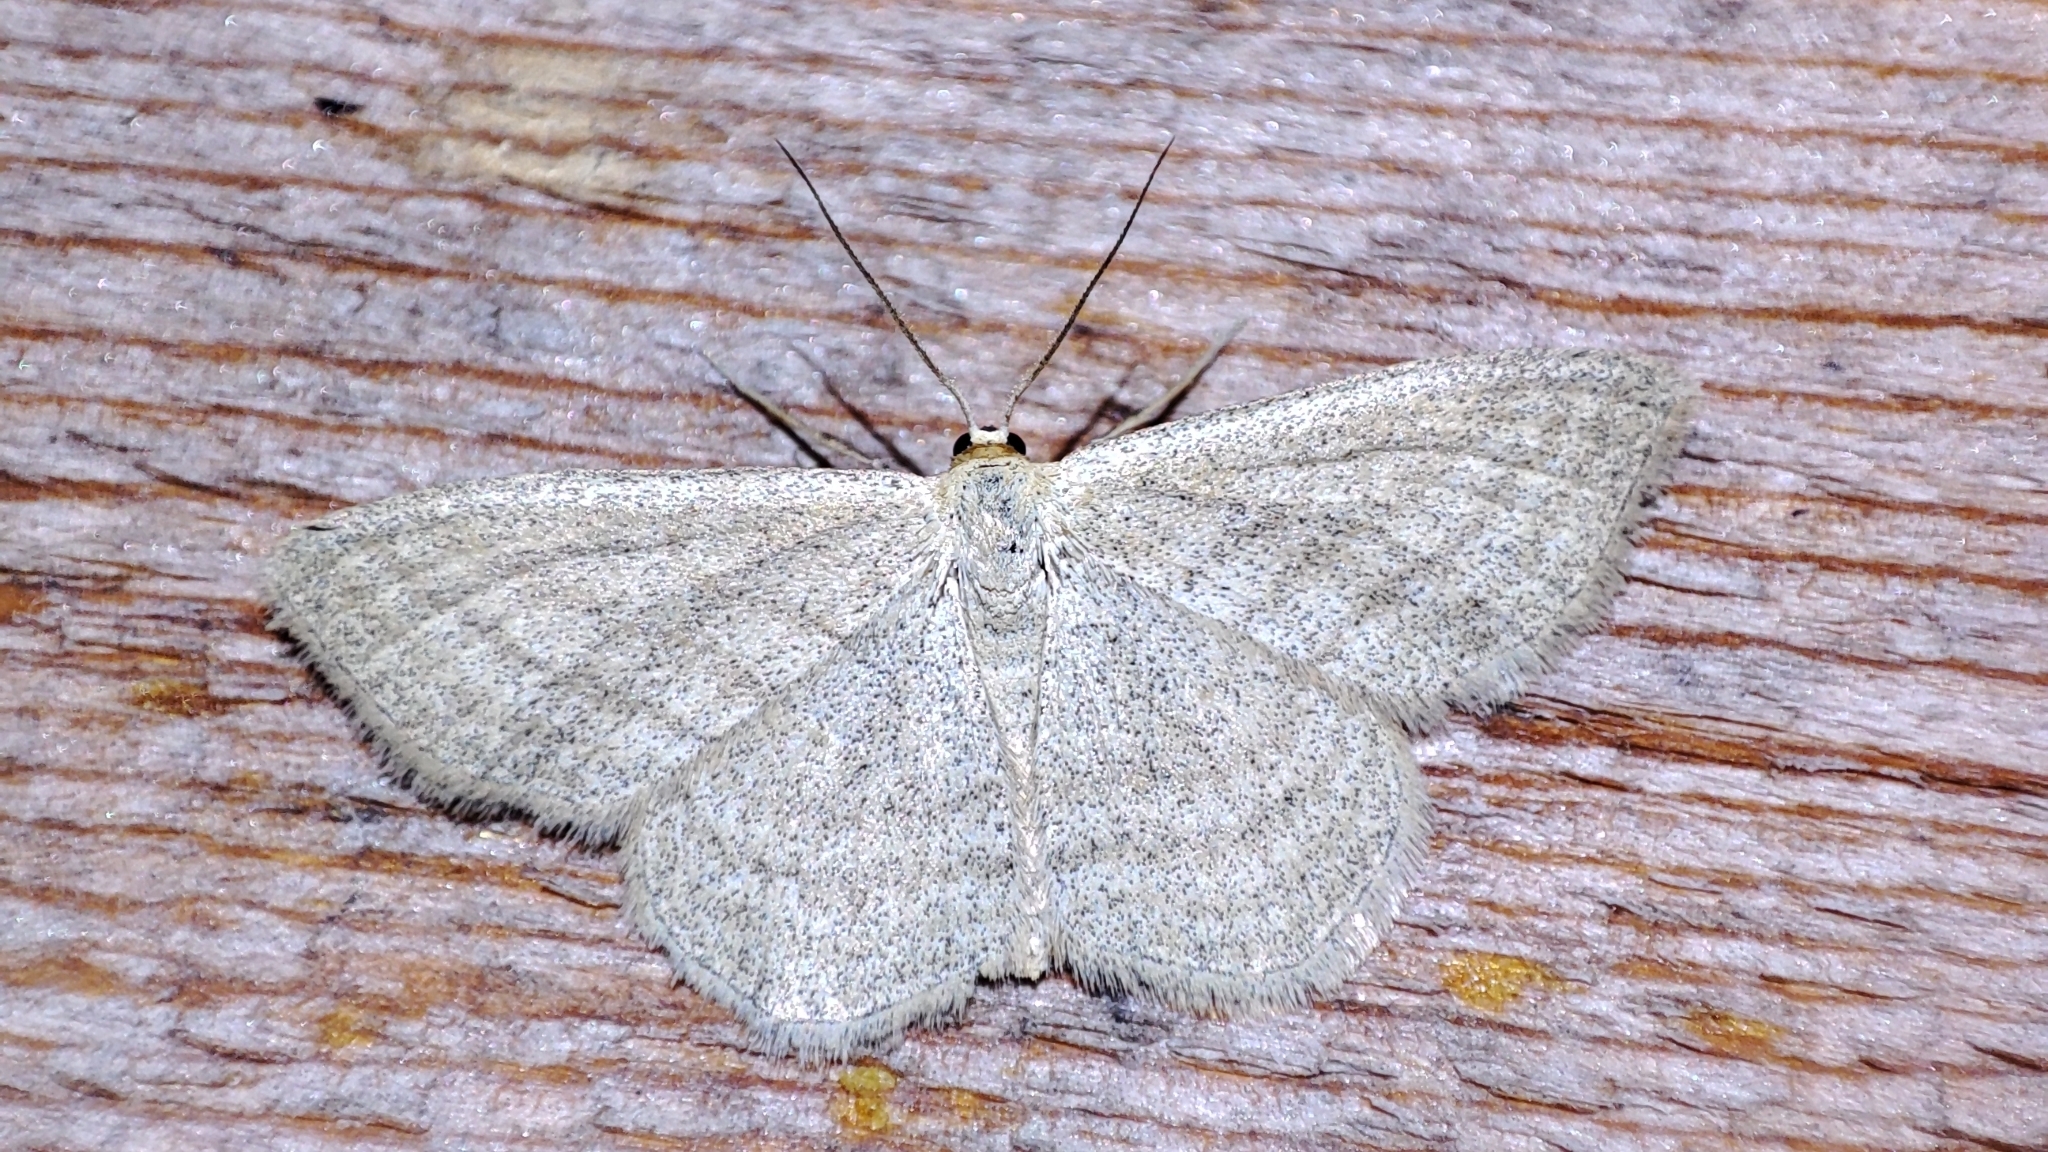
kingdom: Animalia
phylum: Arthropoda
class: Insecta
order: Lepidoptera
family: Geometridae
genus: Scopula
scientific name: Scopula virgulata
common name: Streaked wave
